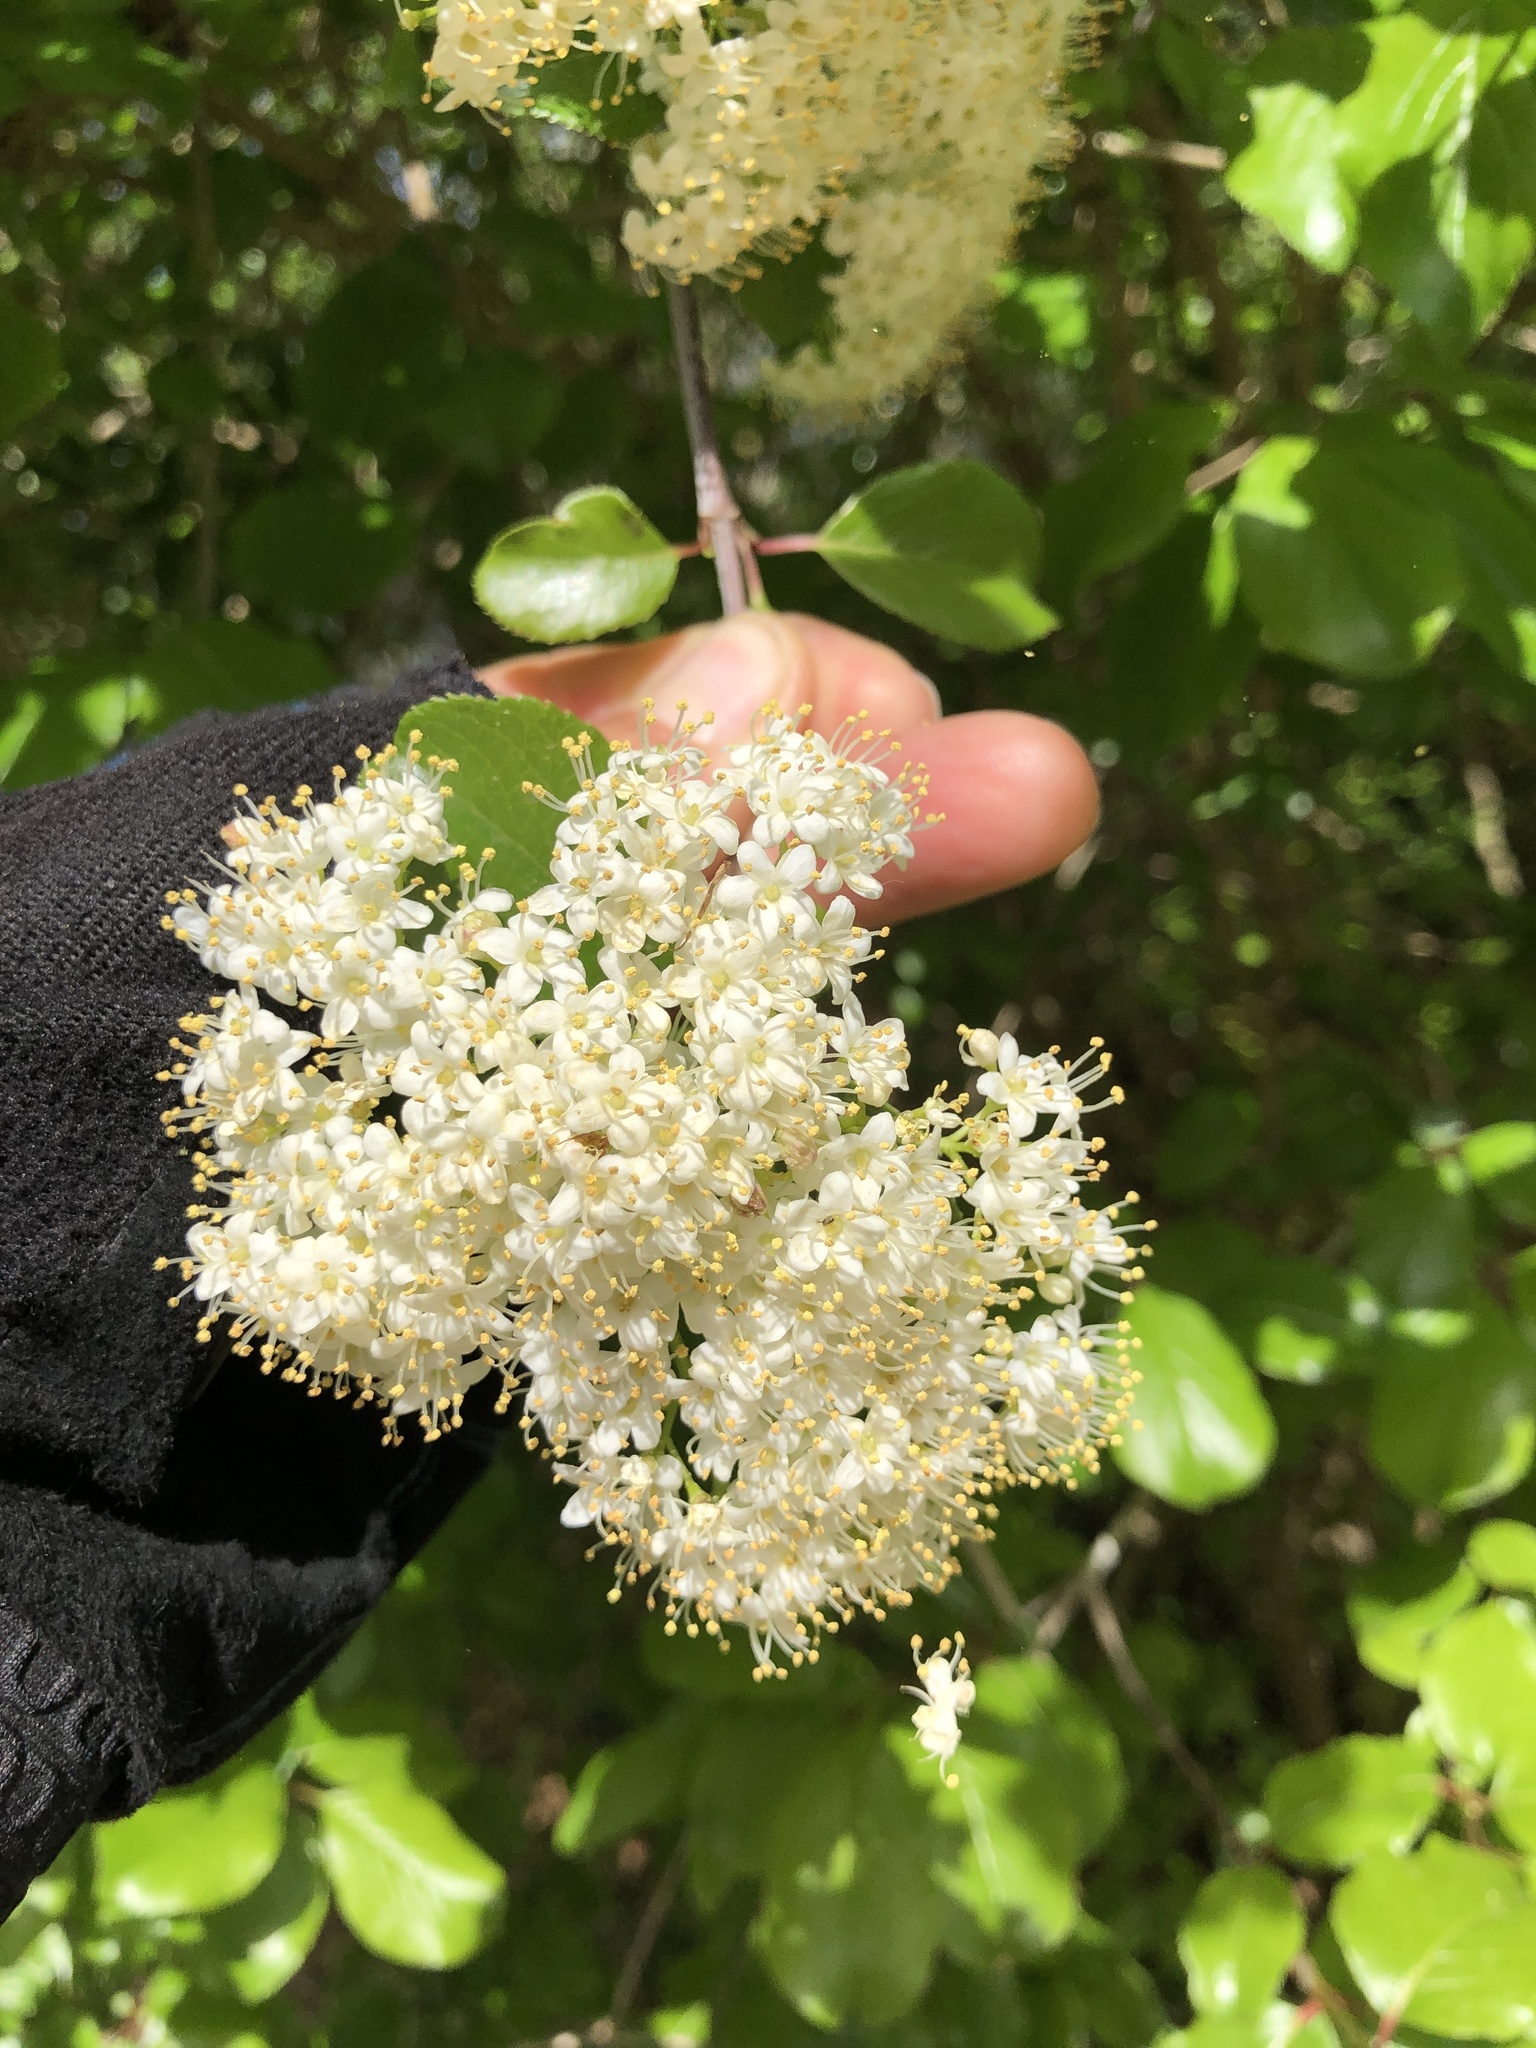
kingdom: Plantae
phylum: Tracheophyta
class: Magnoliopsida
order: Dipsacales
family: Viburnaceae
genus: Viburnum
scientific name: Viburnum rufidulum
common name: Blue haw
